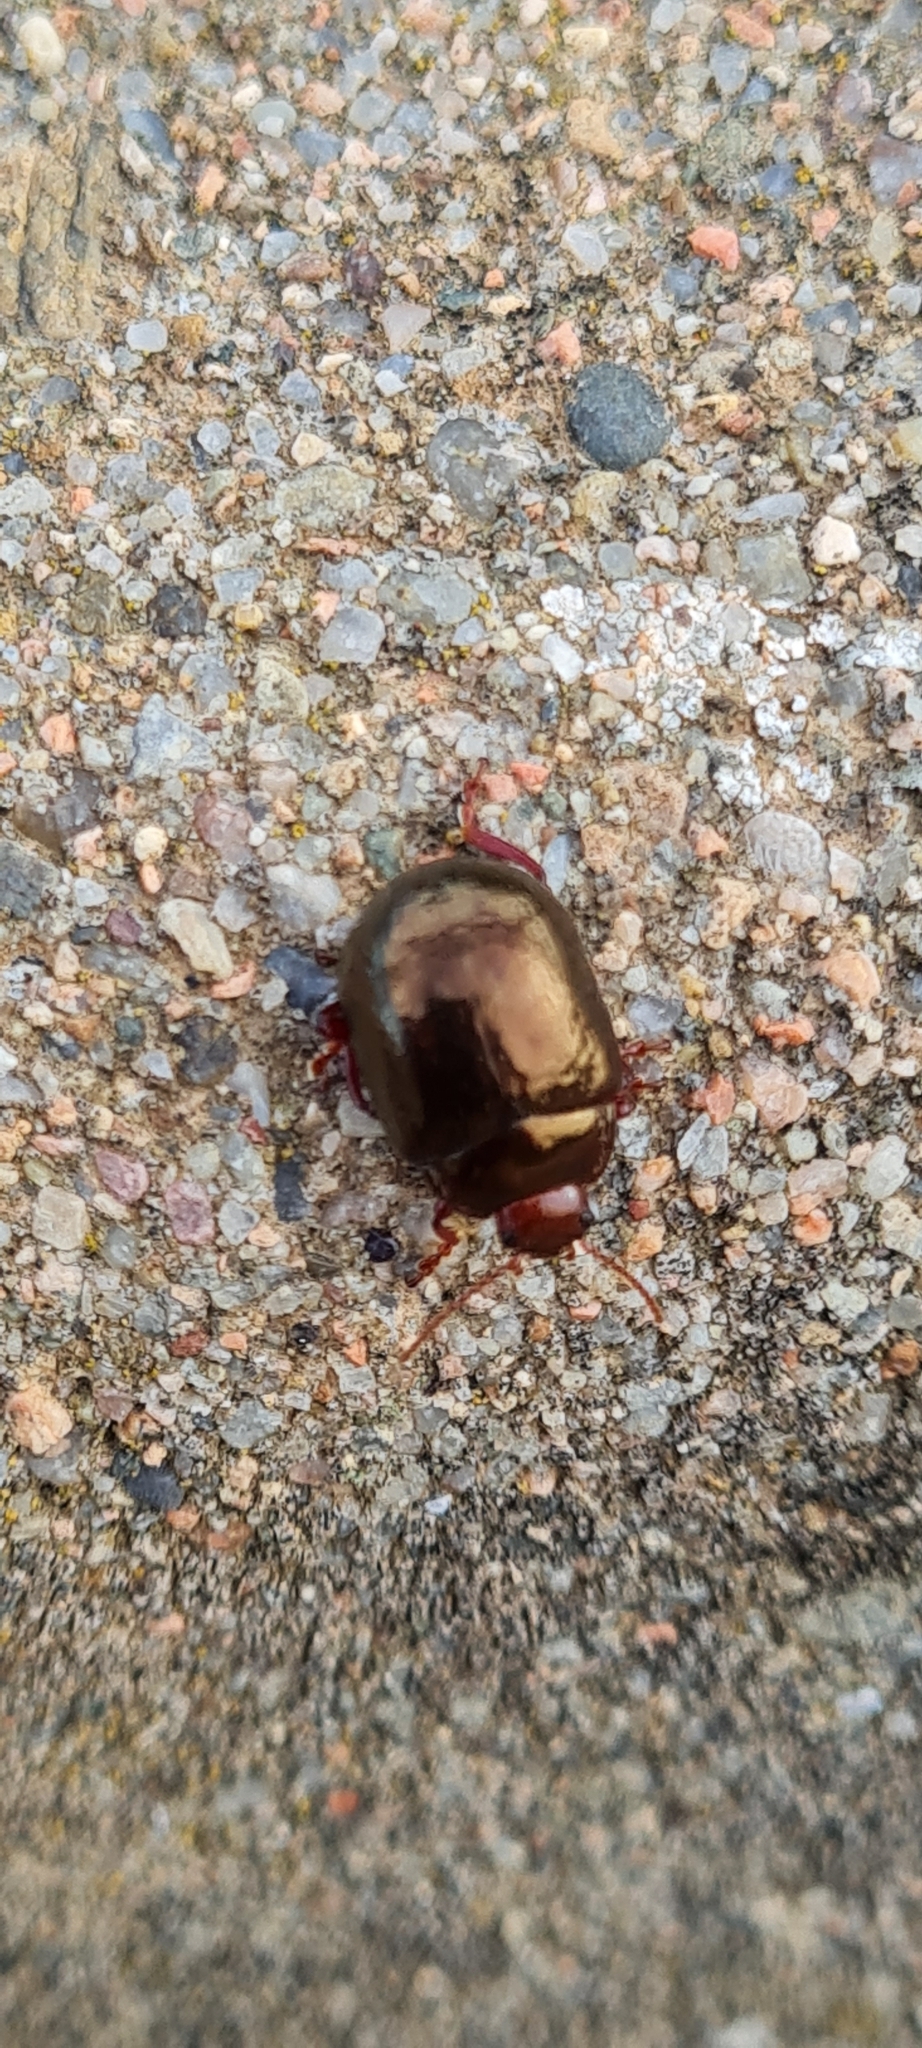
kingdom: Animalia
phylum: Arthropoda
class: Insecta
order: Coleoptera
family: Chrysomelidae
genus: Chrysolina
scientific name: Chrysolina bankii
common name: Leaf beetle
